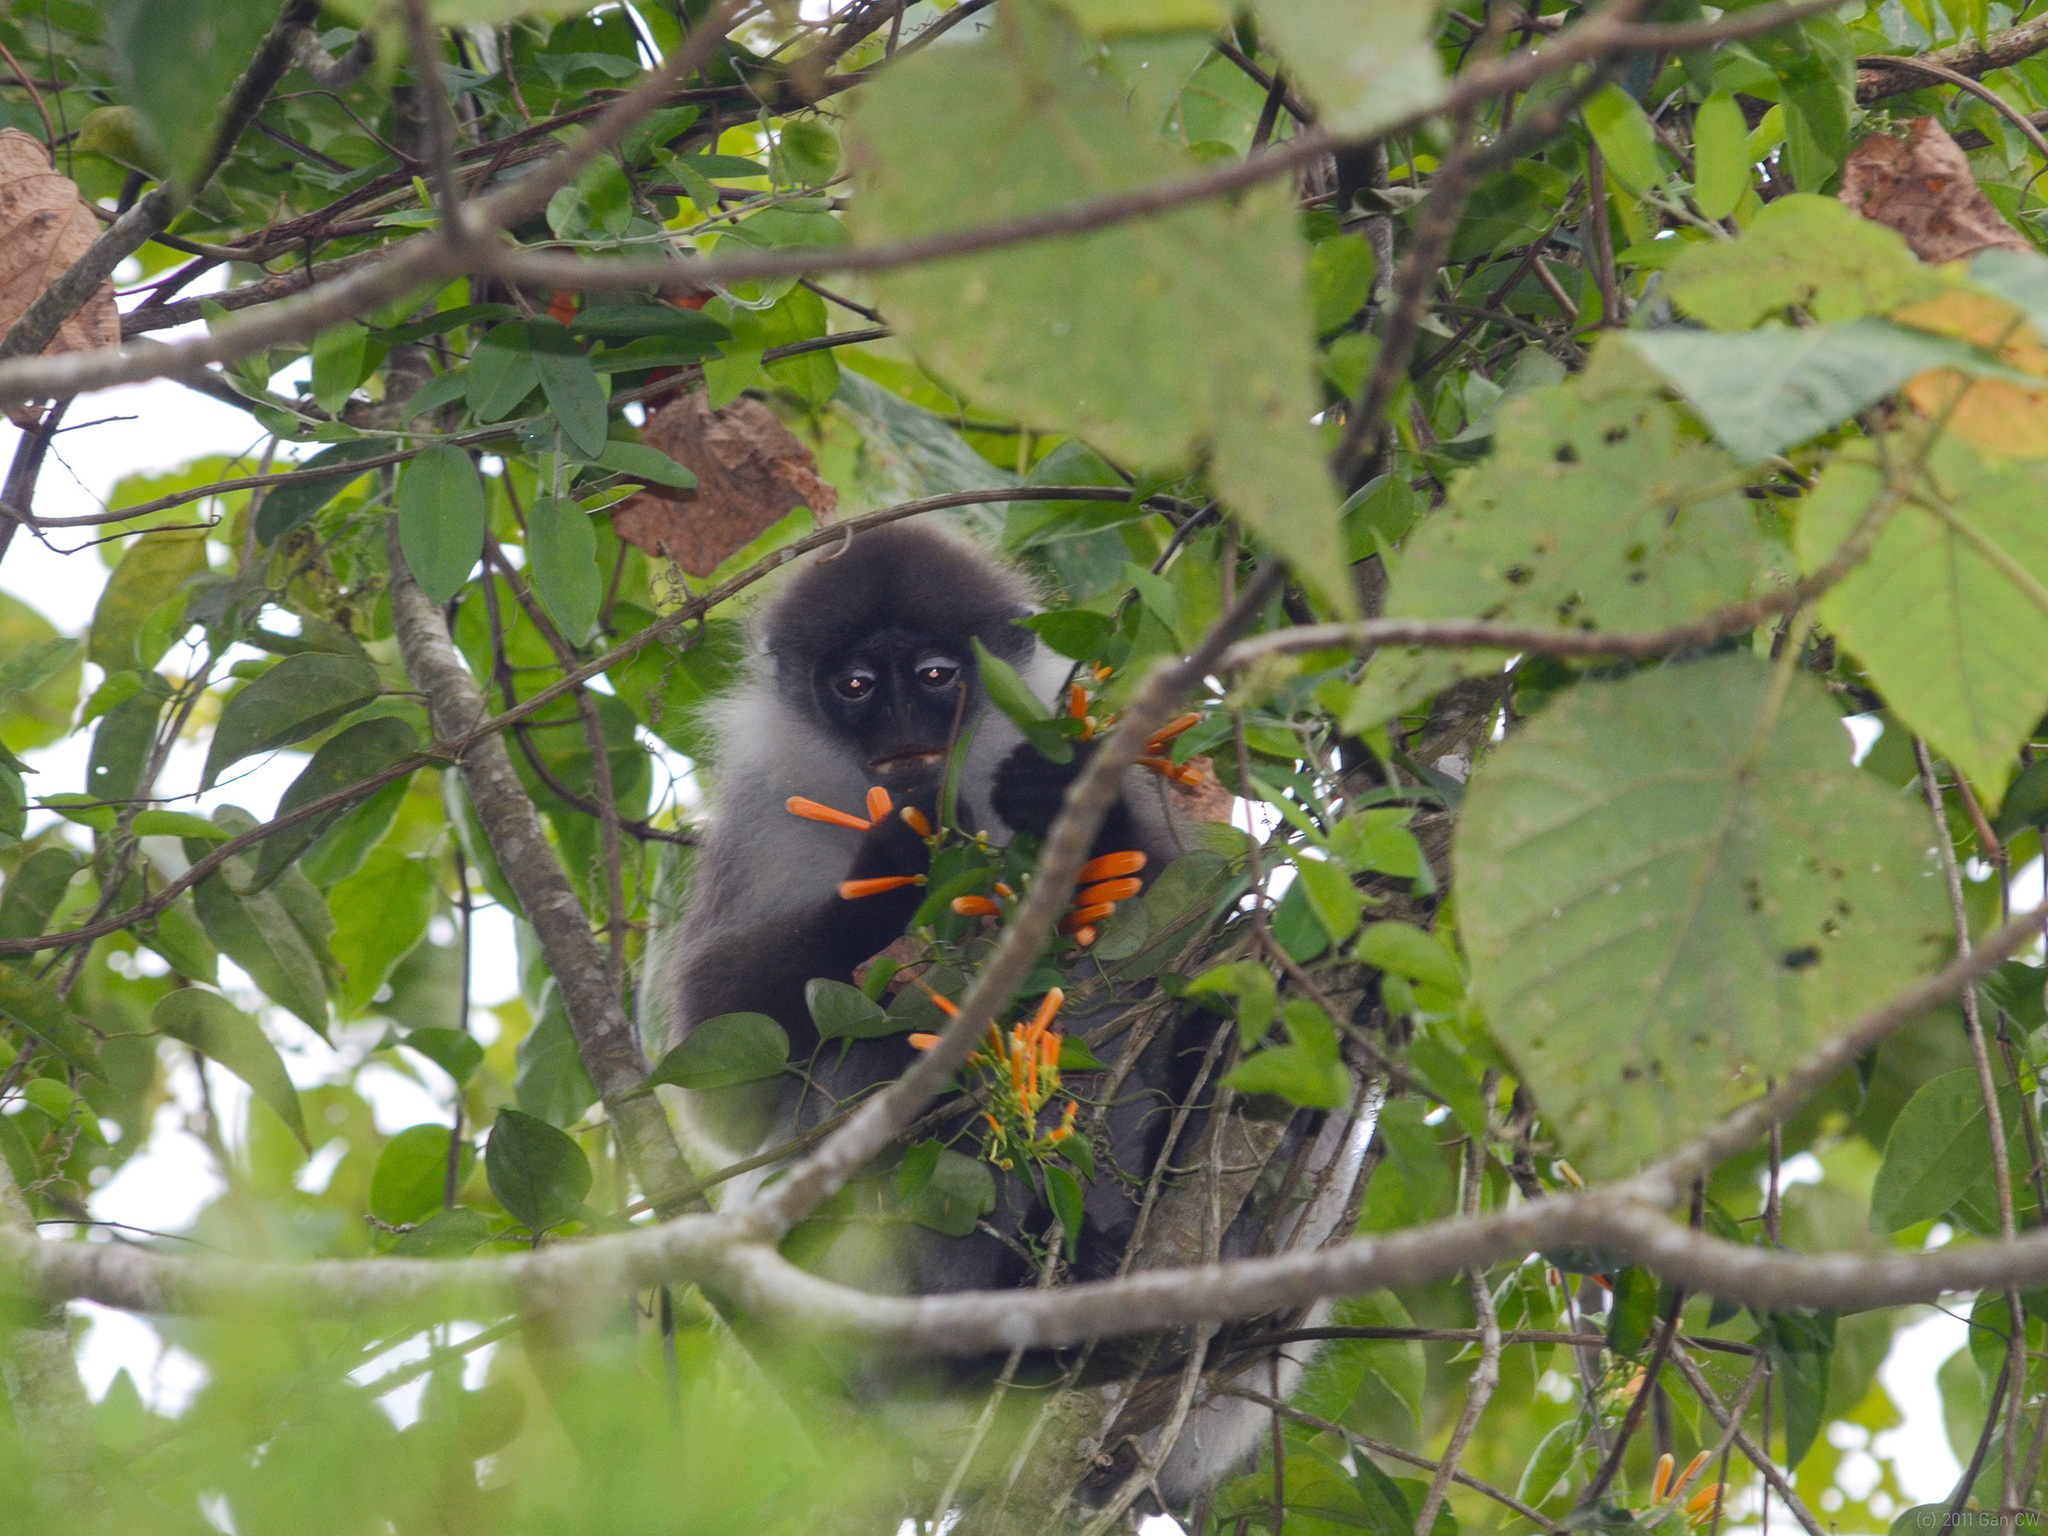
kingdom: Animalia
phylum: Chordata
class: Mammalia
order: Primates
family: Cercopithecidae
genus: Presbytis
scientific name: Presbytis siamensis
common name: White-thighed surili
